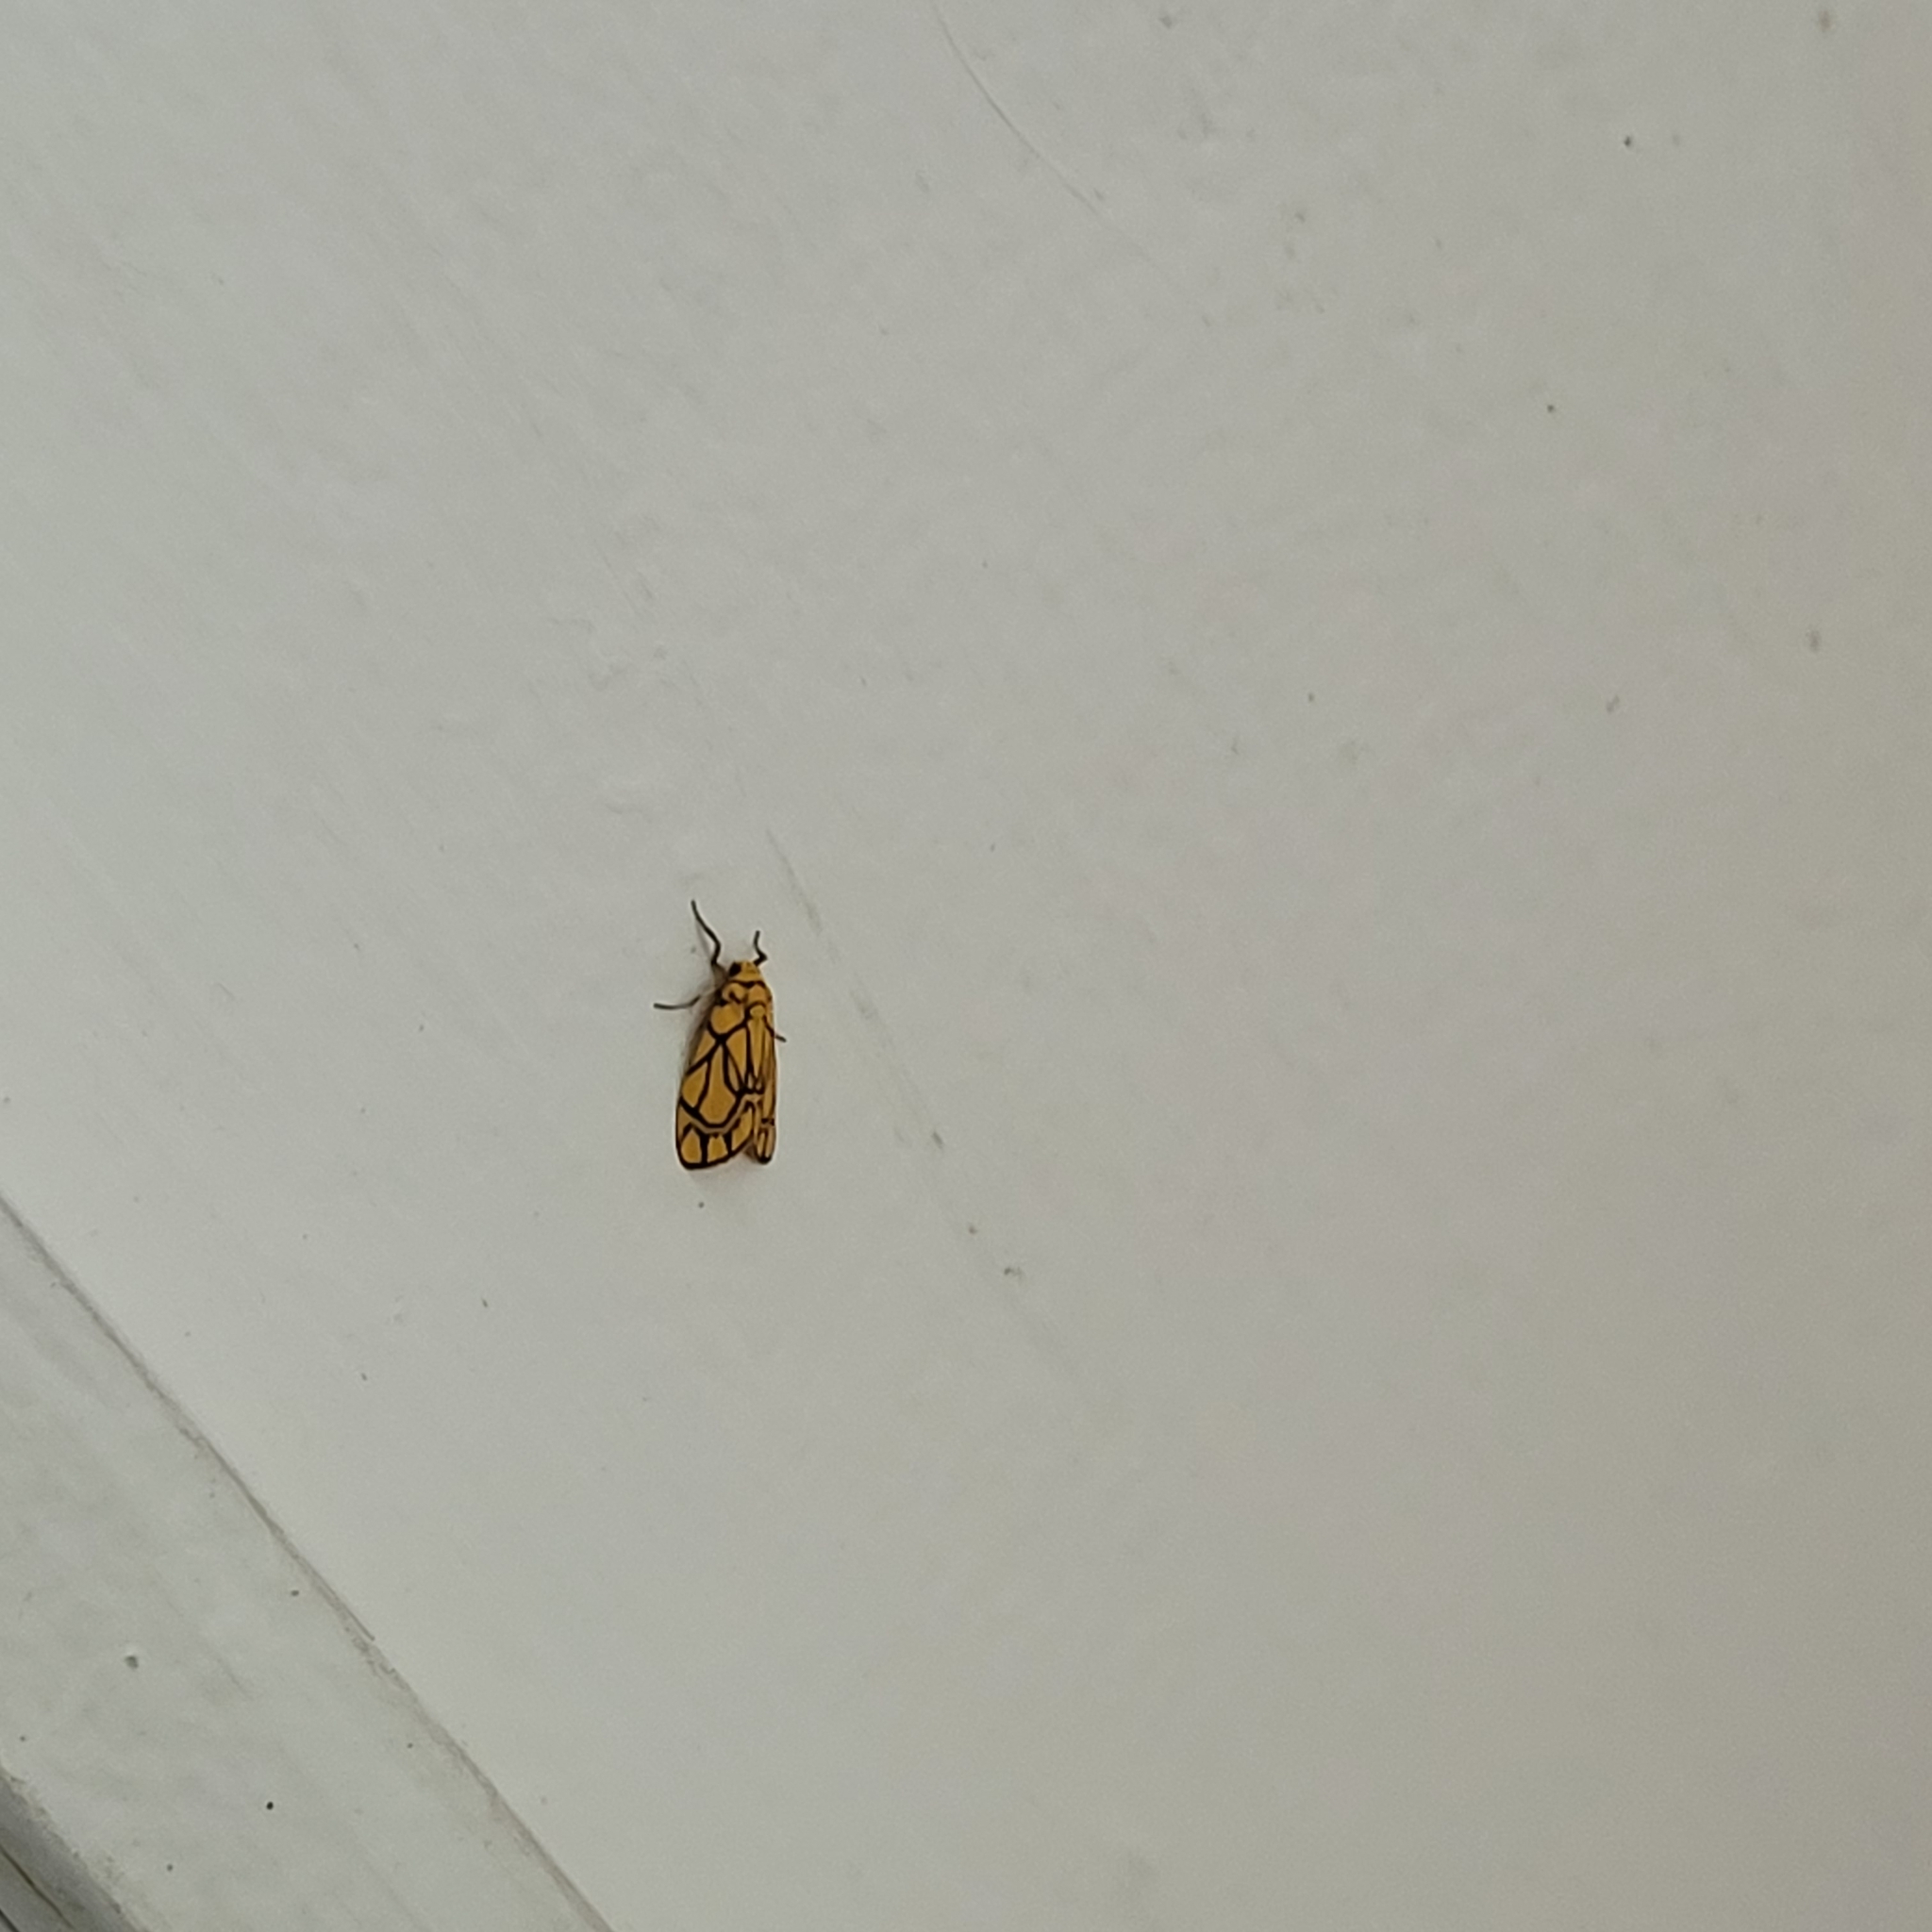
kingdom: Animalia
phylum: Arthropoda
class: Insecta
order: Lepidoptera
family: Erebidae
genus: Cyme
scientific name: Cyme euprepioides
